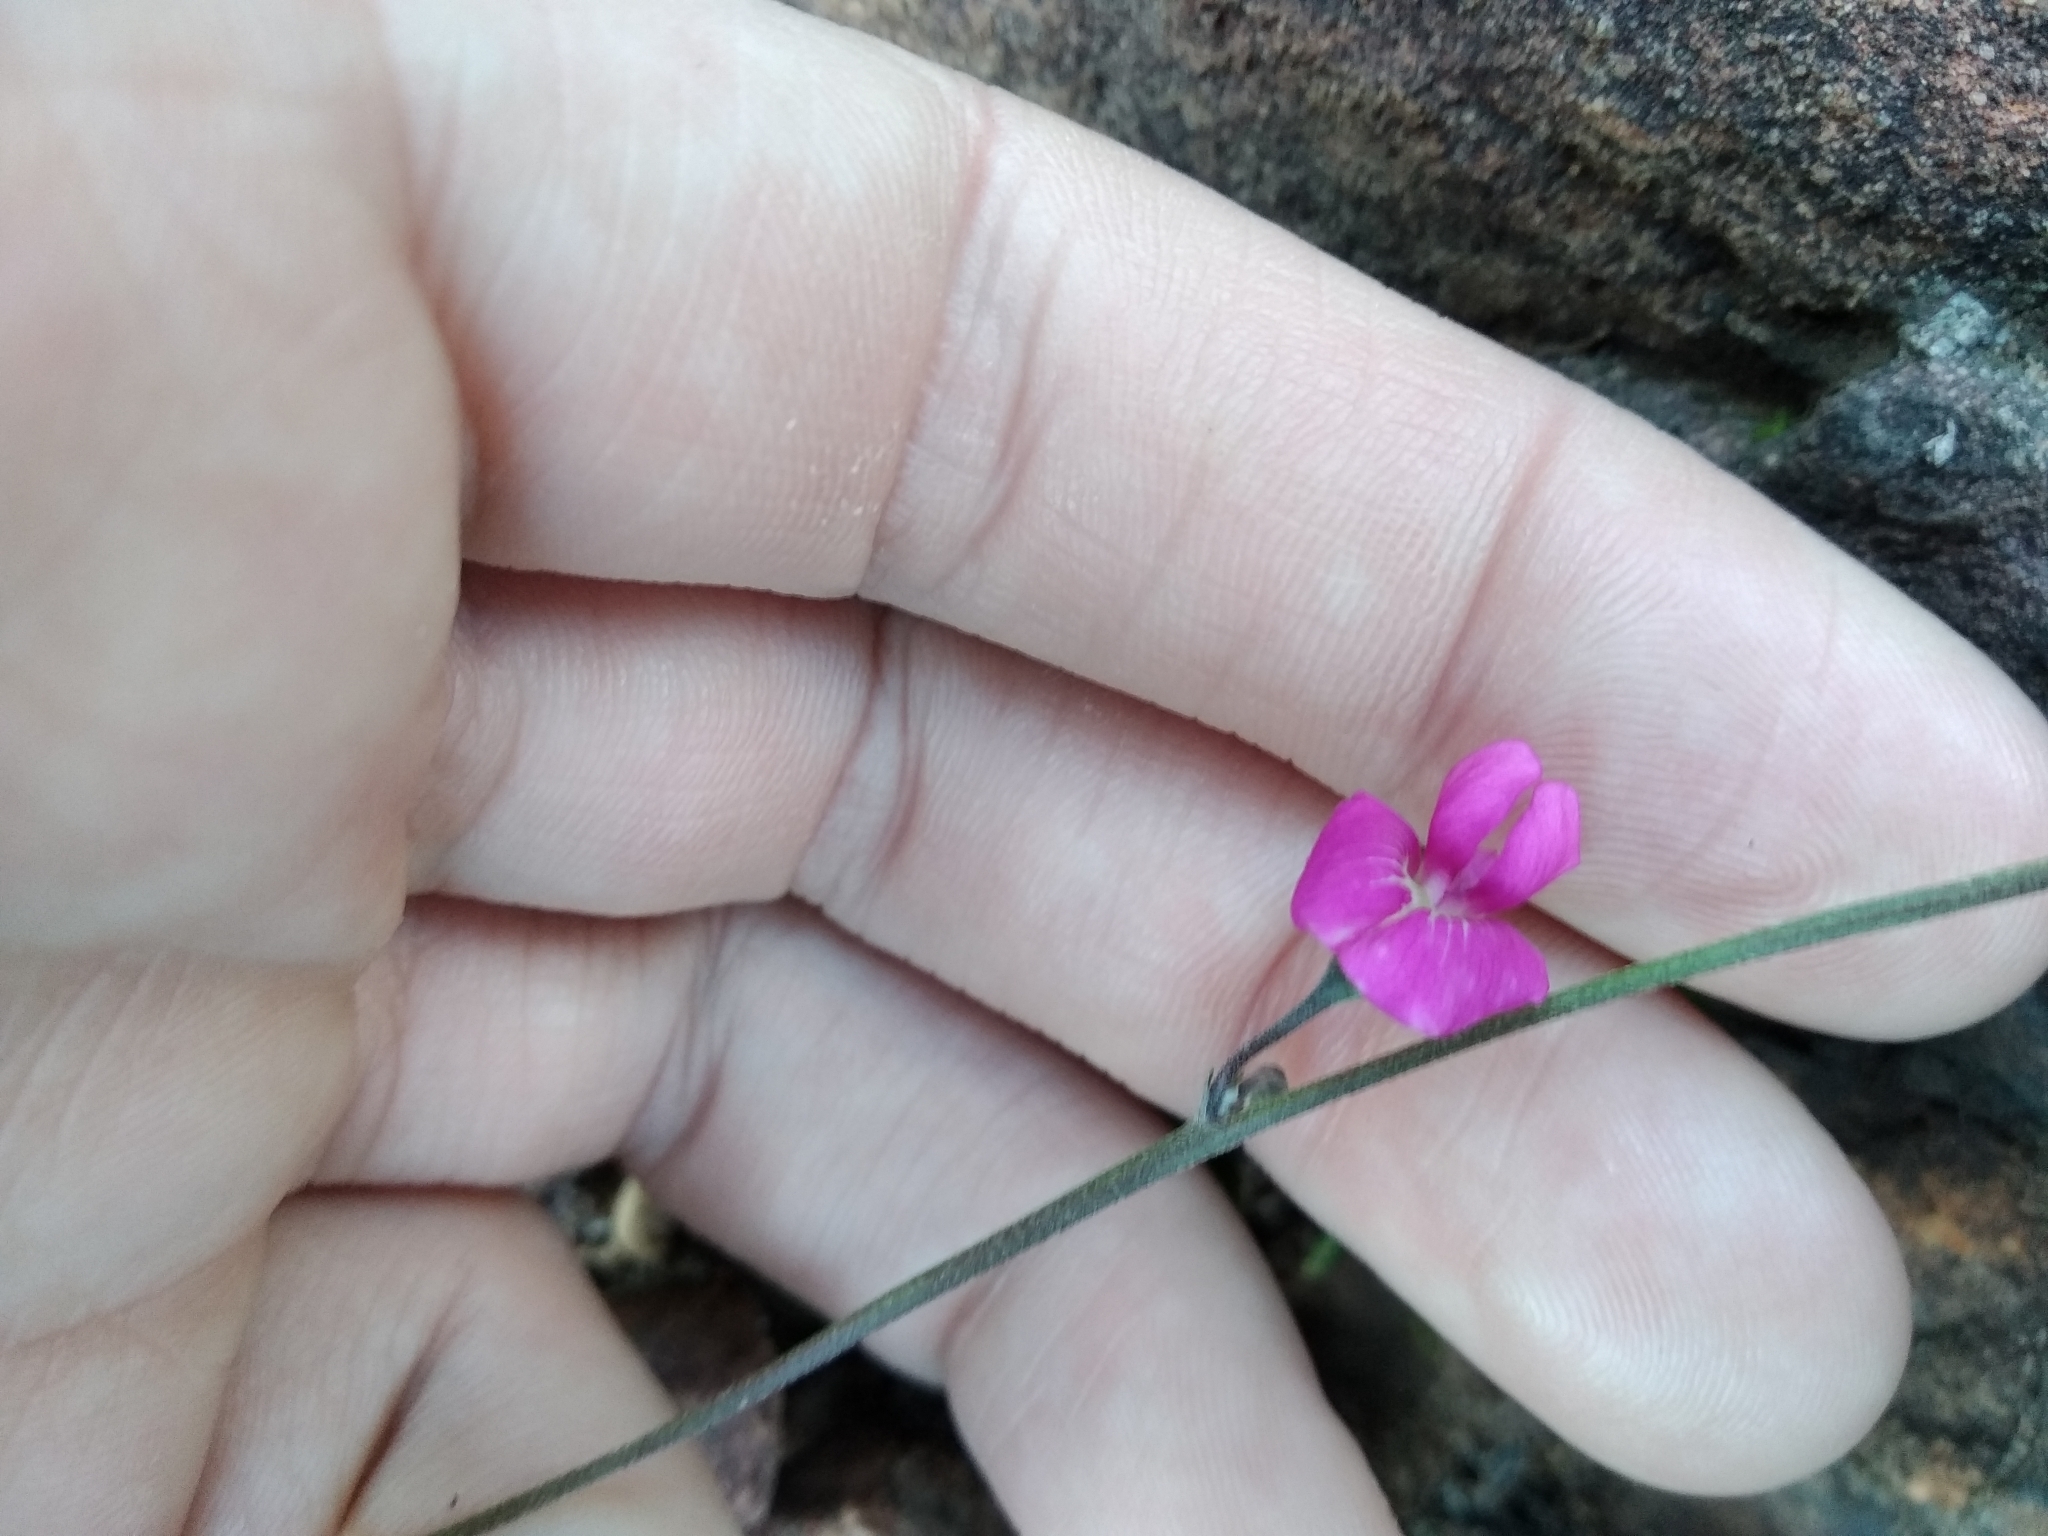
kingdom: Plantae
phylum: Tracheophyta
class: Magnoliopsida
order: Fabales
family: Fabaceae
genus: Tephrosia
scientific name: Tephrosia capensis
